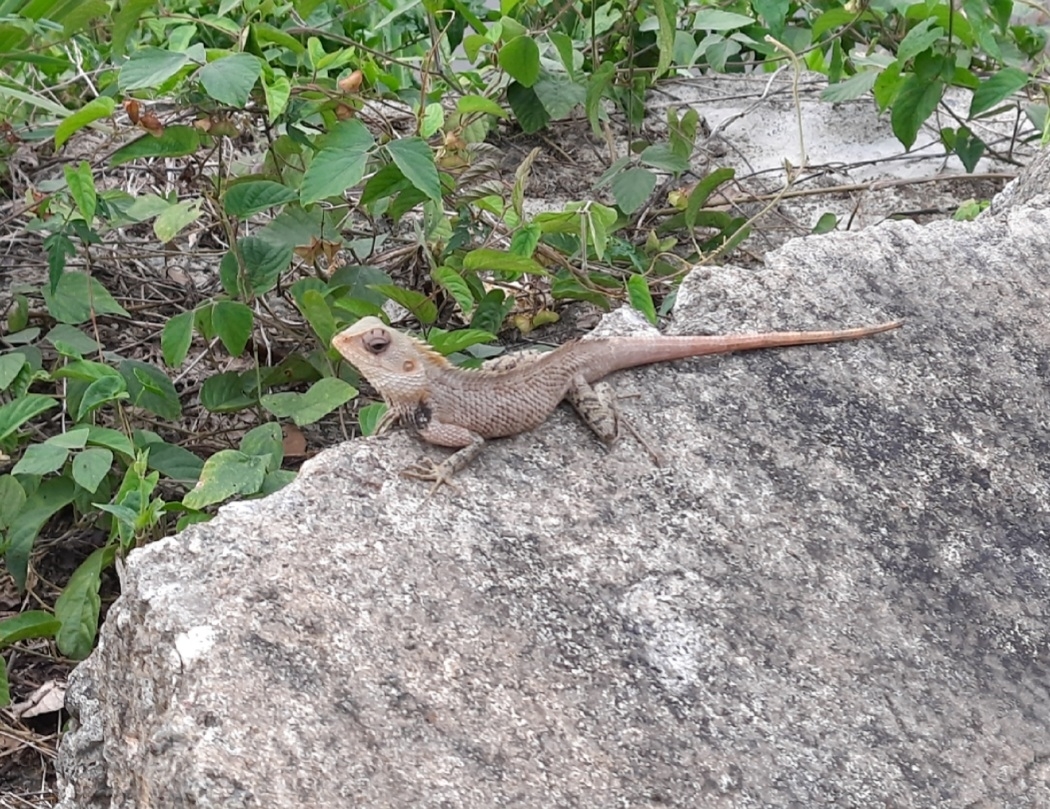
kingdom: Animalia
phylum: Chordata
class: Squamata
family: Agamidae
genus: Calotes
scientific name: Calotes versicolor
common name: Oriental garden lizard
